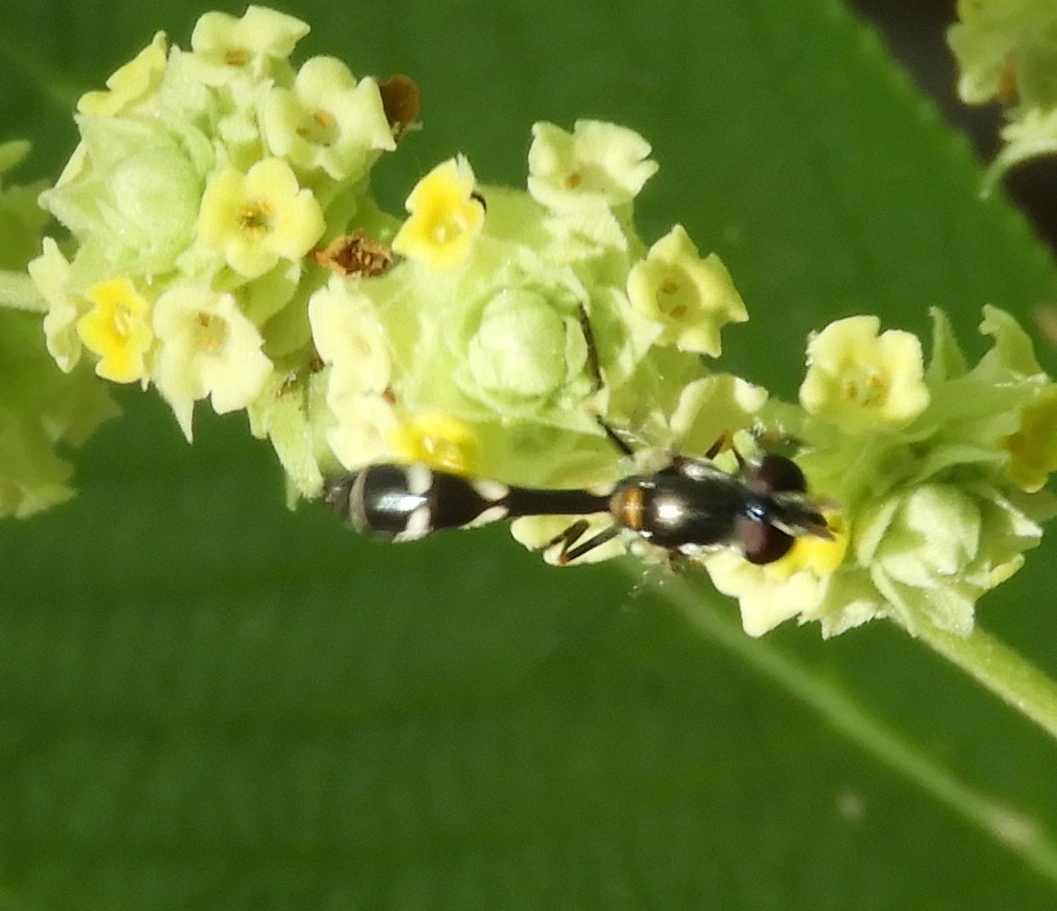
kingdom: Animalia
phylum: Arthropoda
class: Insecta
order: Diptera
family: Syrphidae
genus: Dioprosopa
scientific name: Dioprosopa clavatus
